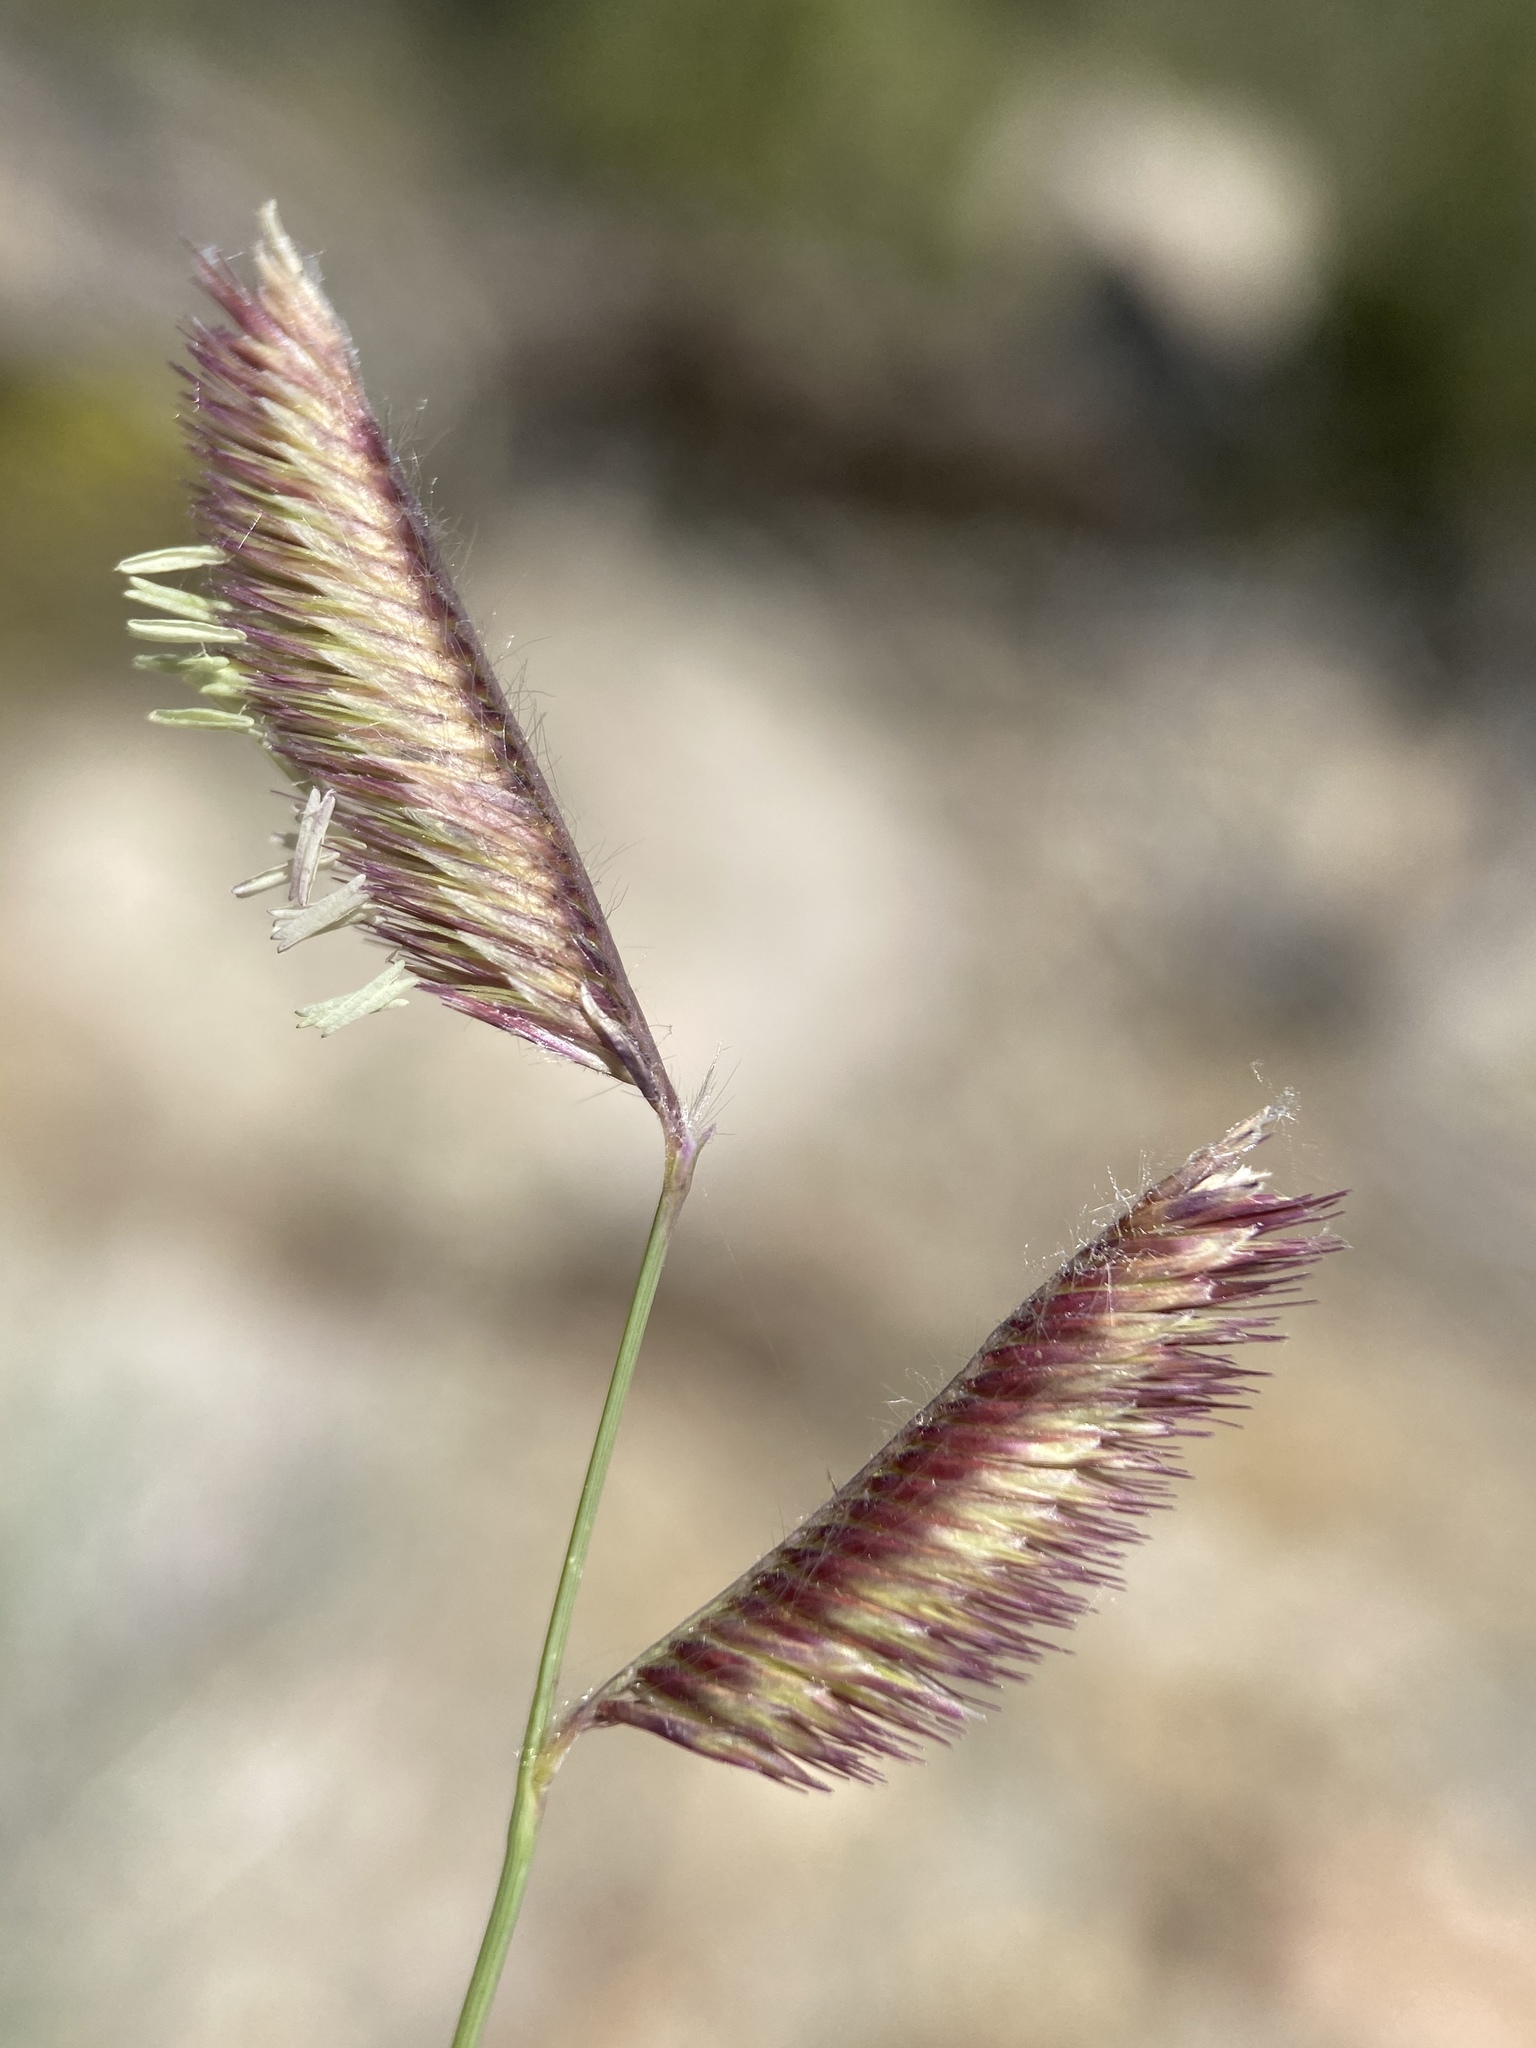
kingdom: Plantae
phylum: Tracheophyta
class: Liliopsida
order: Poales
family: Poaceae
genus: Bouteloua
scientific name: Bouteloua gracilis
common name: Blue grama
